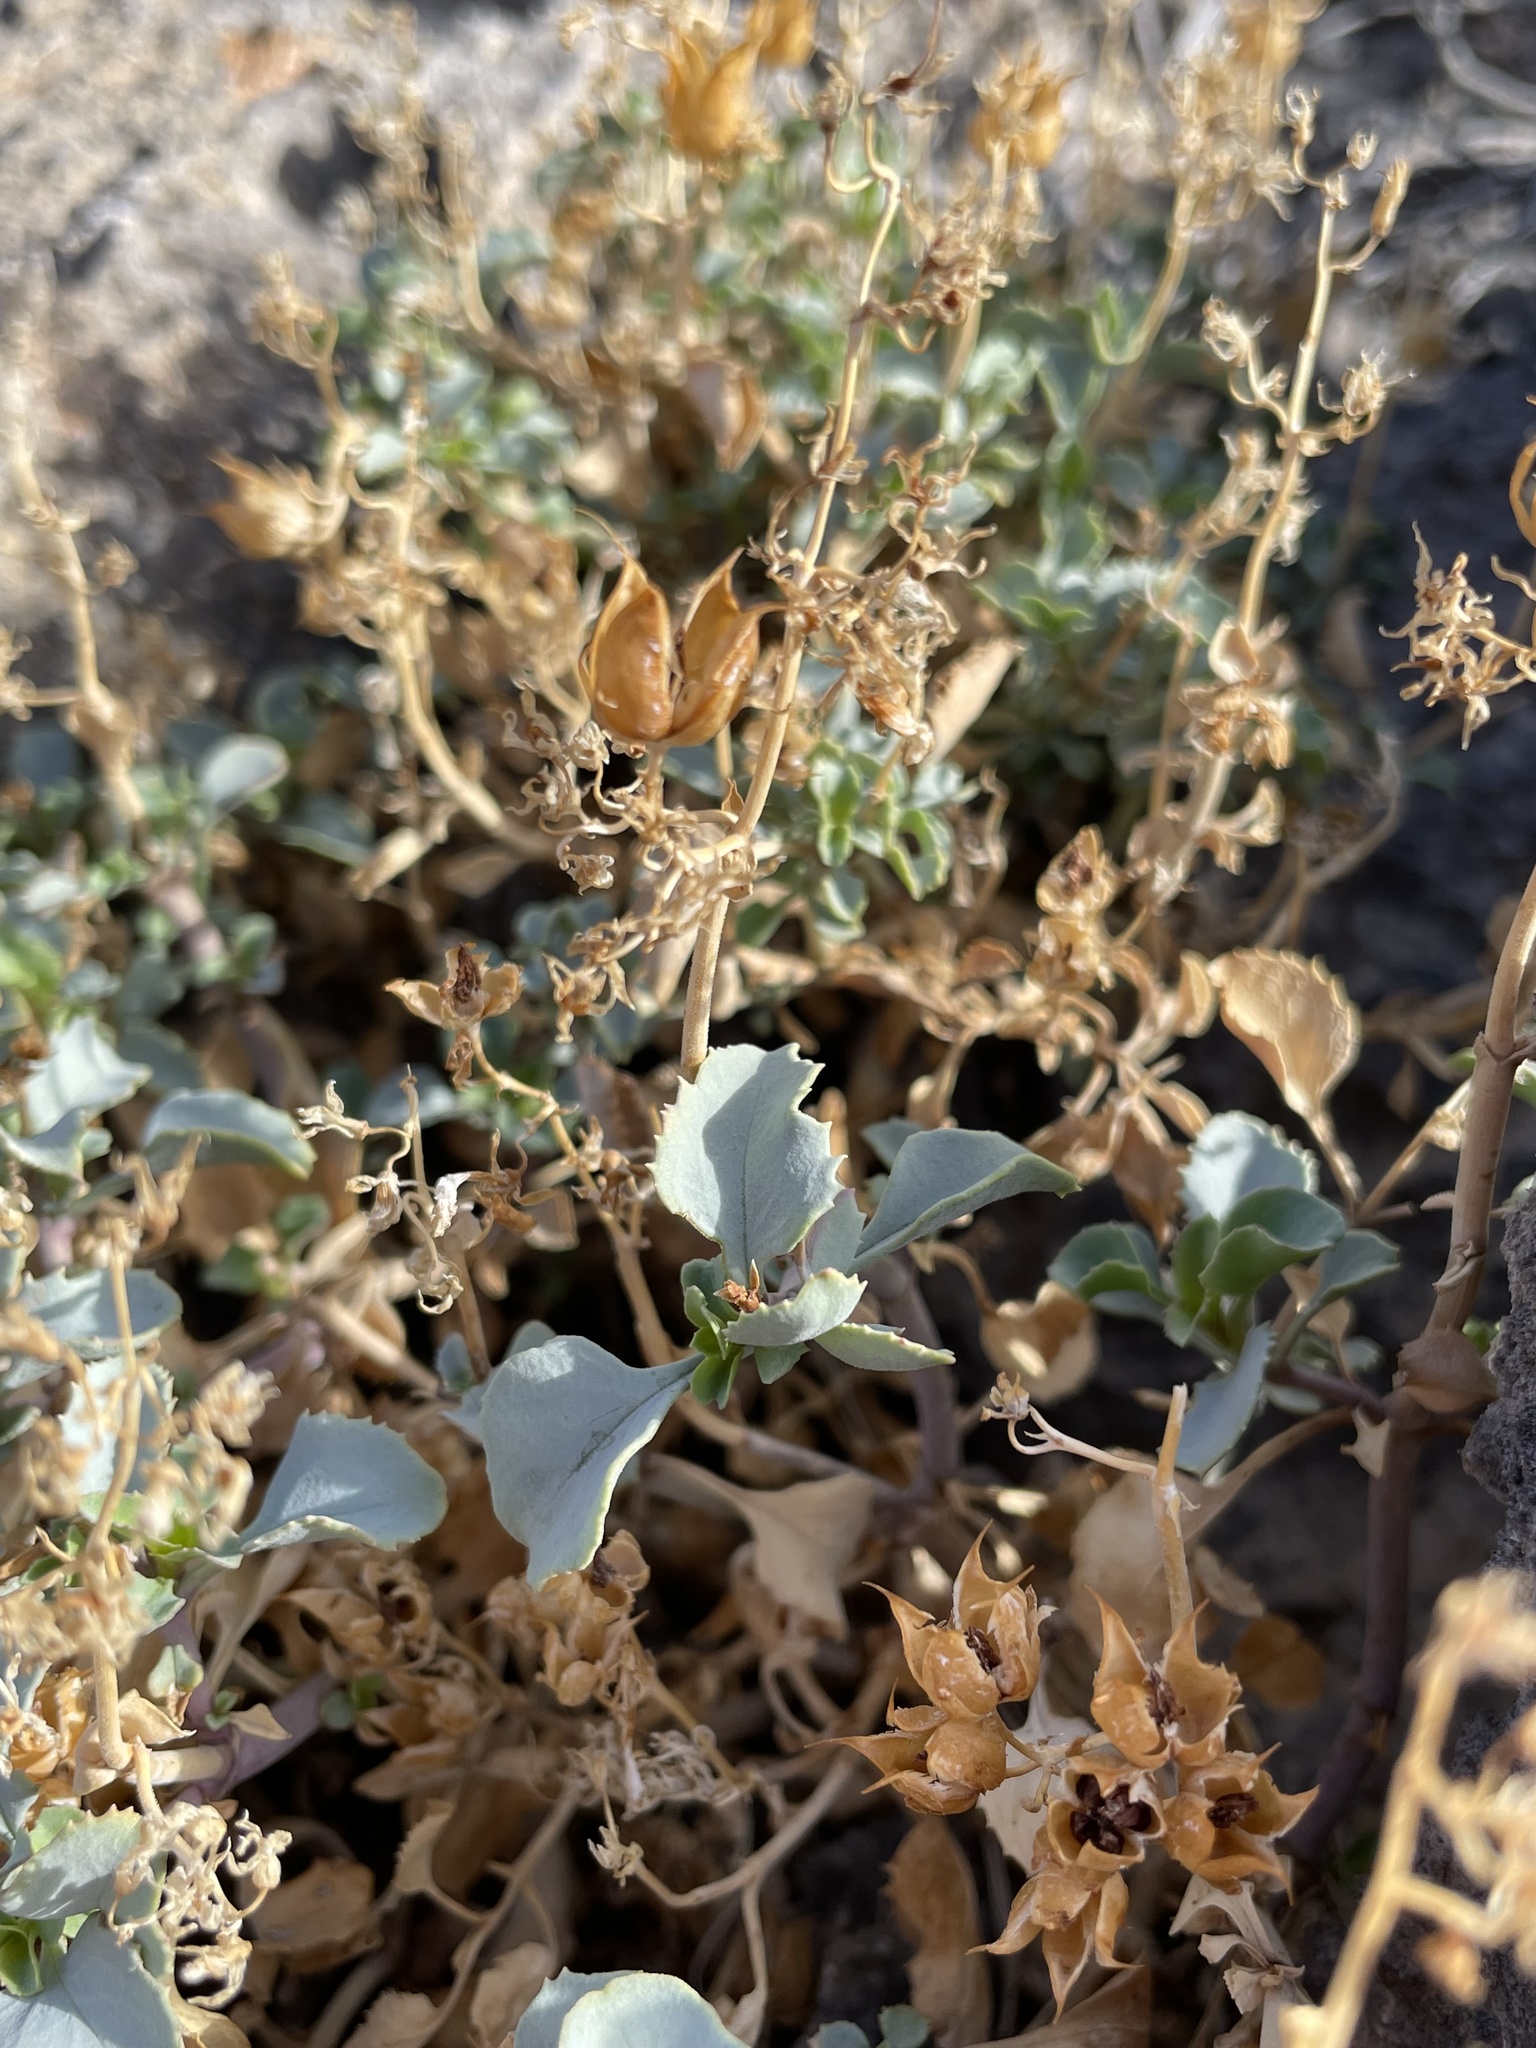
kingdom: Plantae
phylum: Tracheophyta
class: Magnoliopsida
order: Lamiales
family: Plantaginaceae
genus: Penstemon
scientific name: Penstemon petiolatus
